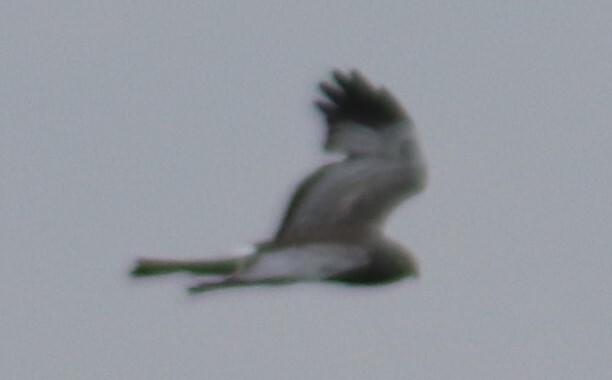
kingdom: Animalia
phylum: Chordata
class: Aves
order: Accipitriformes
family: Accipitridae
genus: Circus
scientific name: Circus cyaneus
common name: Hen harrier
